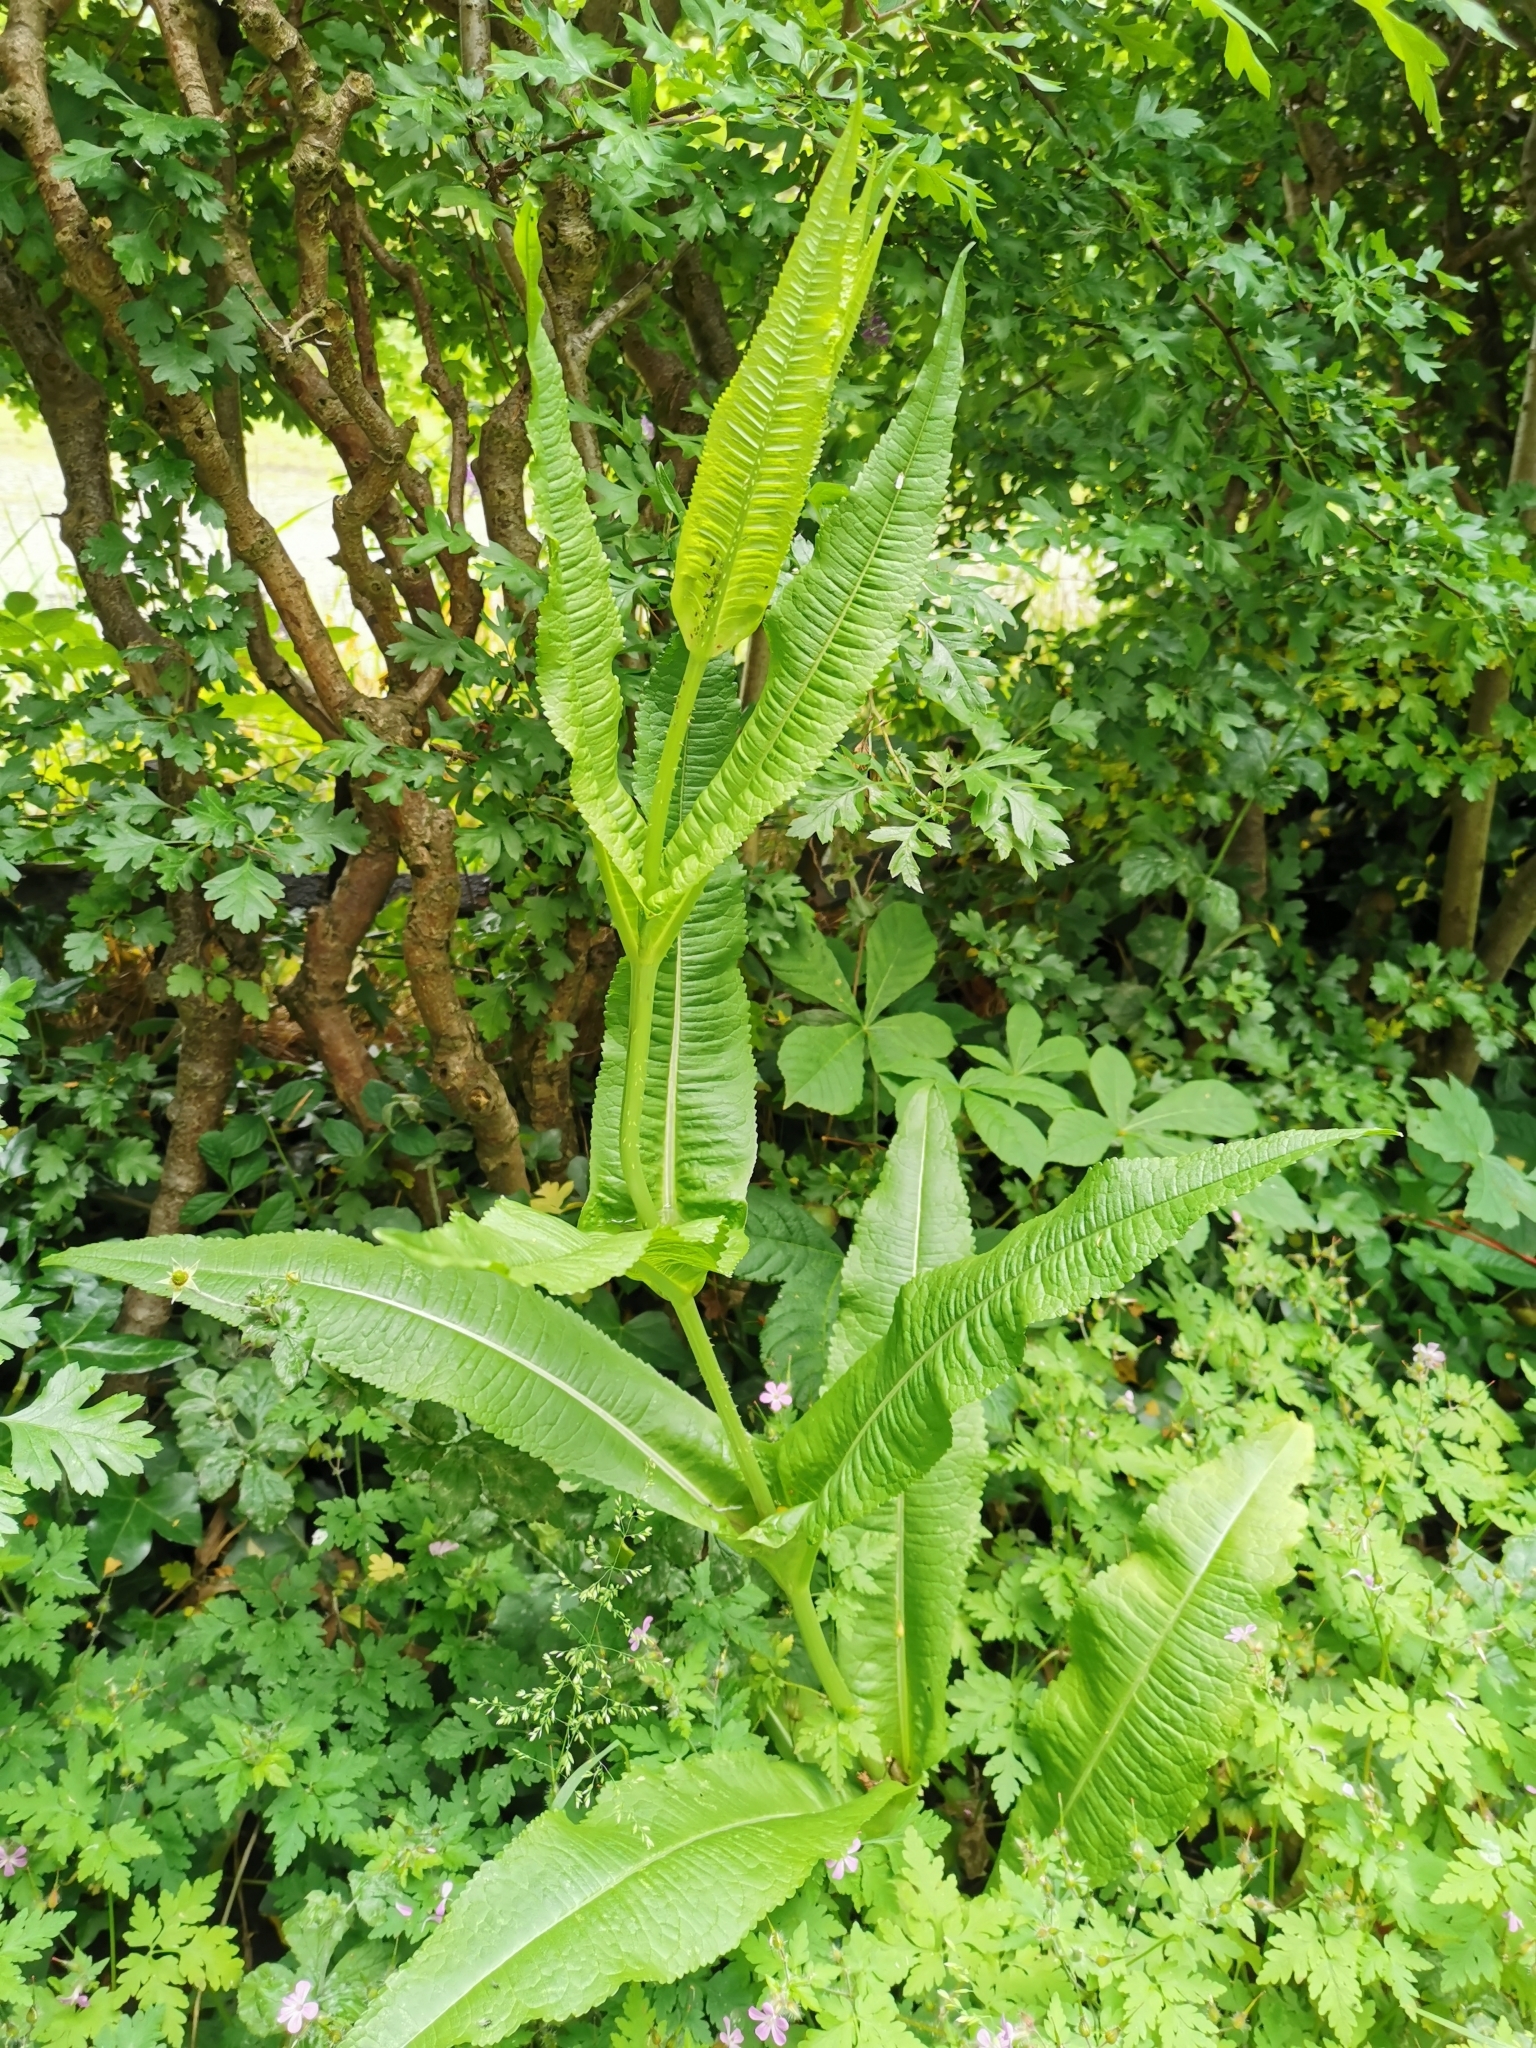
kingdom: Plantae
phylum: Tracheophyta
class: Magnoliopsida
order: Dipsacales
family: Caprifoliaceae
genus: Dipsacus
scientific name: Dipsacus fullonum
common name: Teasel
